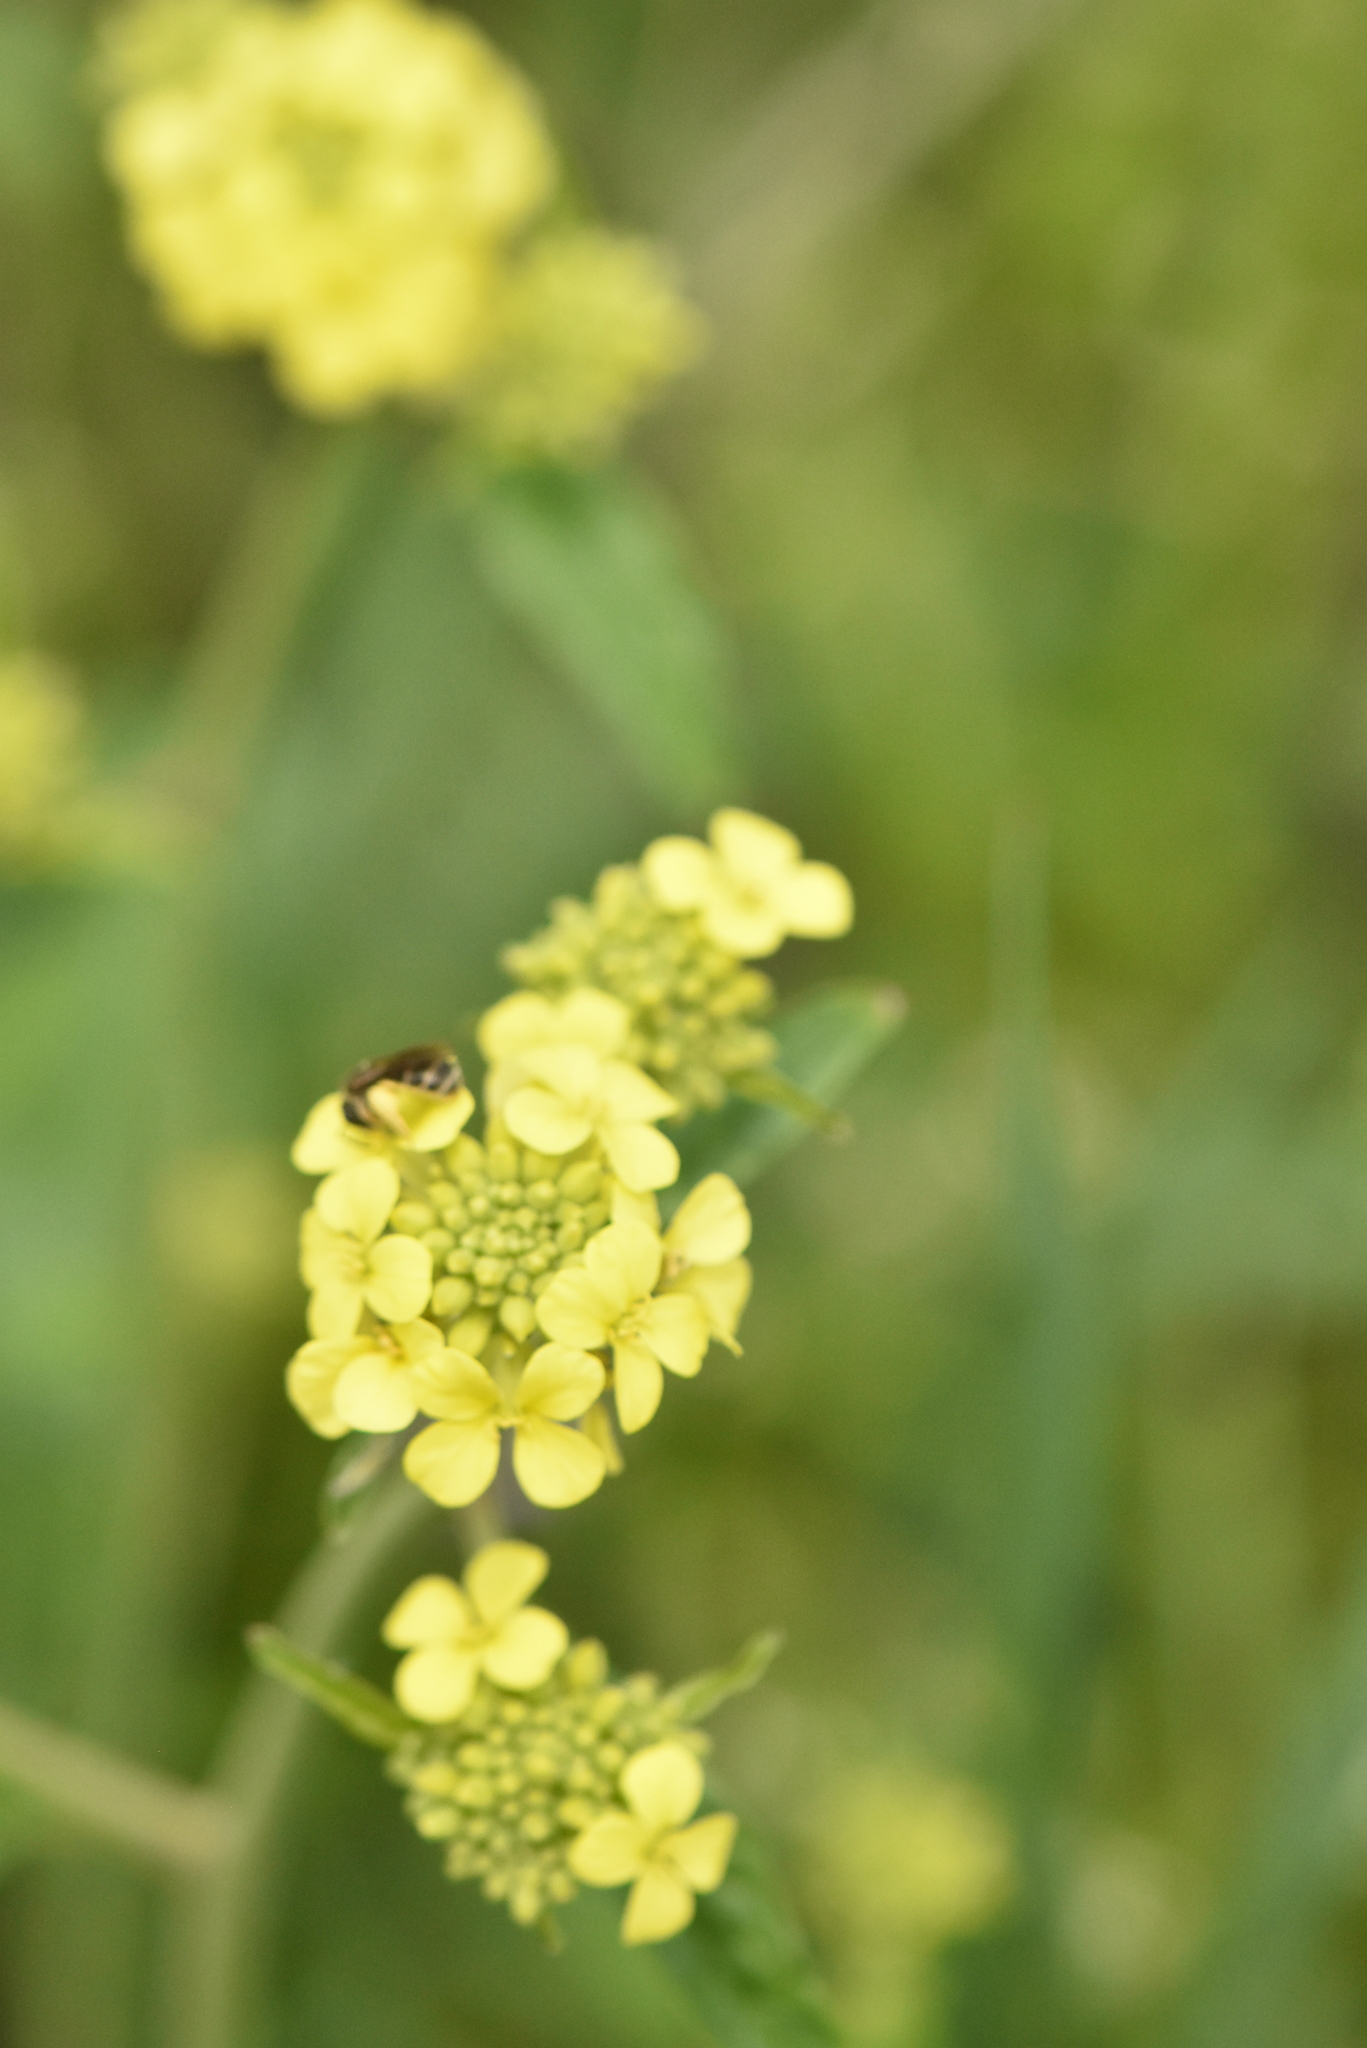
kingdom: Plantae
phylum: Tracheophyta
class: Magnoliopsida
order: Brassicales
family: Brassicaceae
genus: Rapistrum
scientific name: Rapistrum rugosum
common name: Annual bastardcabbage
